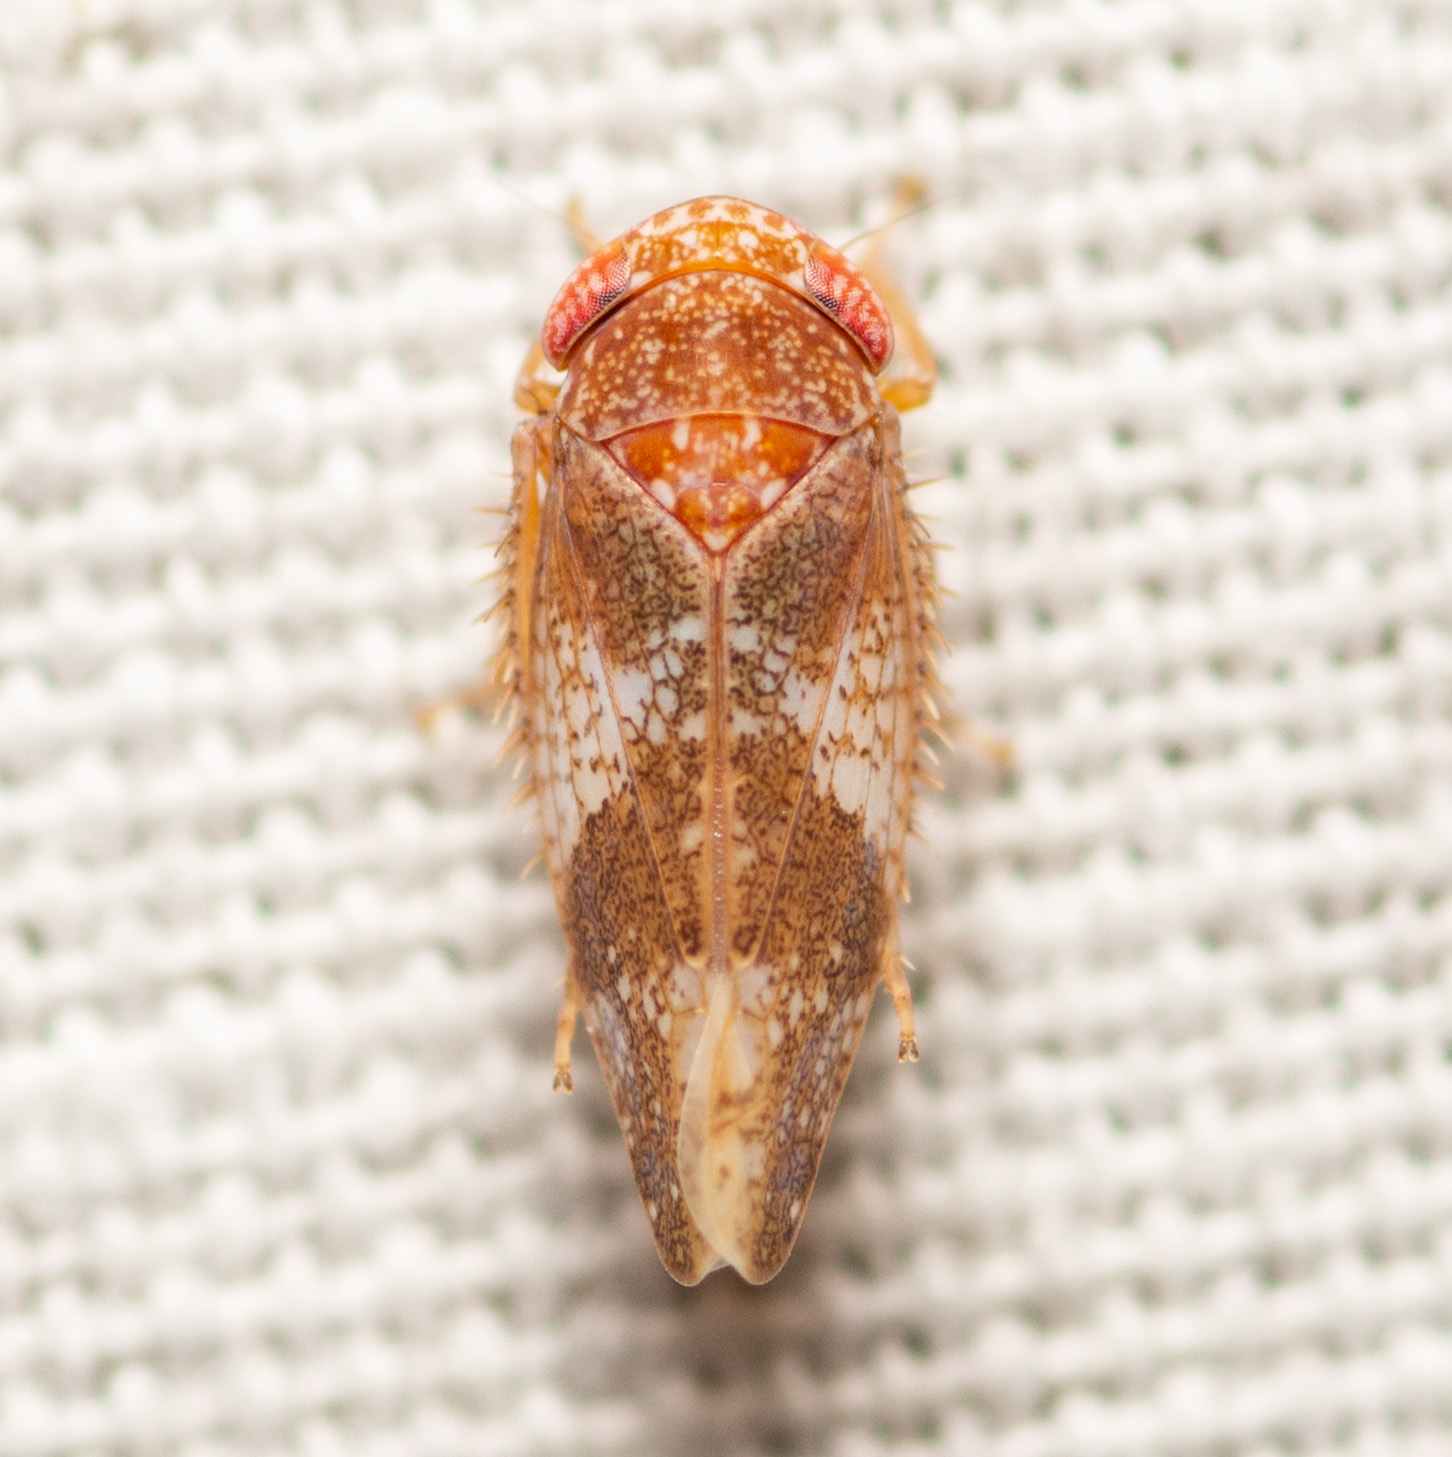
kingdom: Animalia
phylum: Arthropoda
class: Insecta
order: Hemiptera
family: Cicadellidae
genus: Norvellina
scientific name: Norvellina helenae
